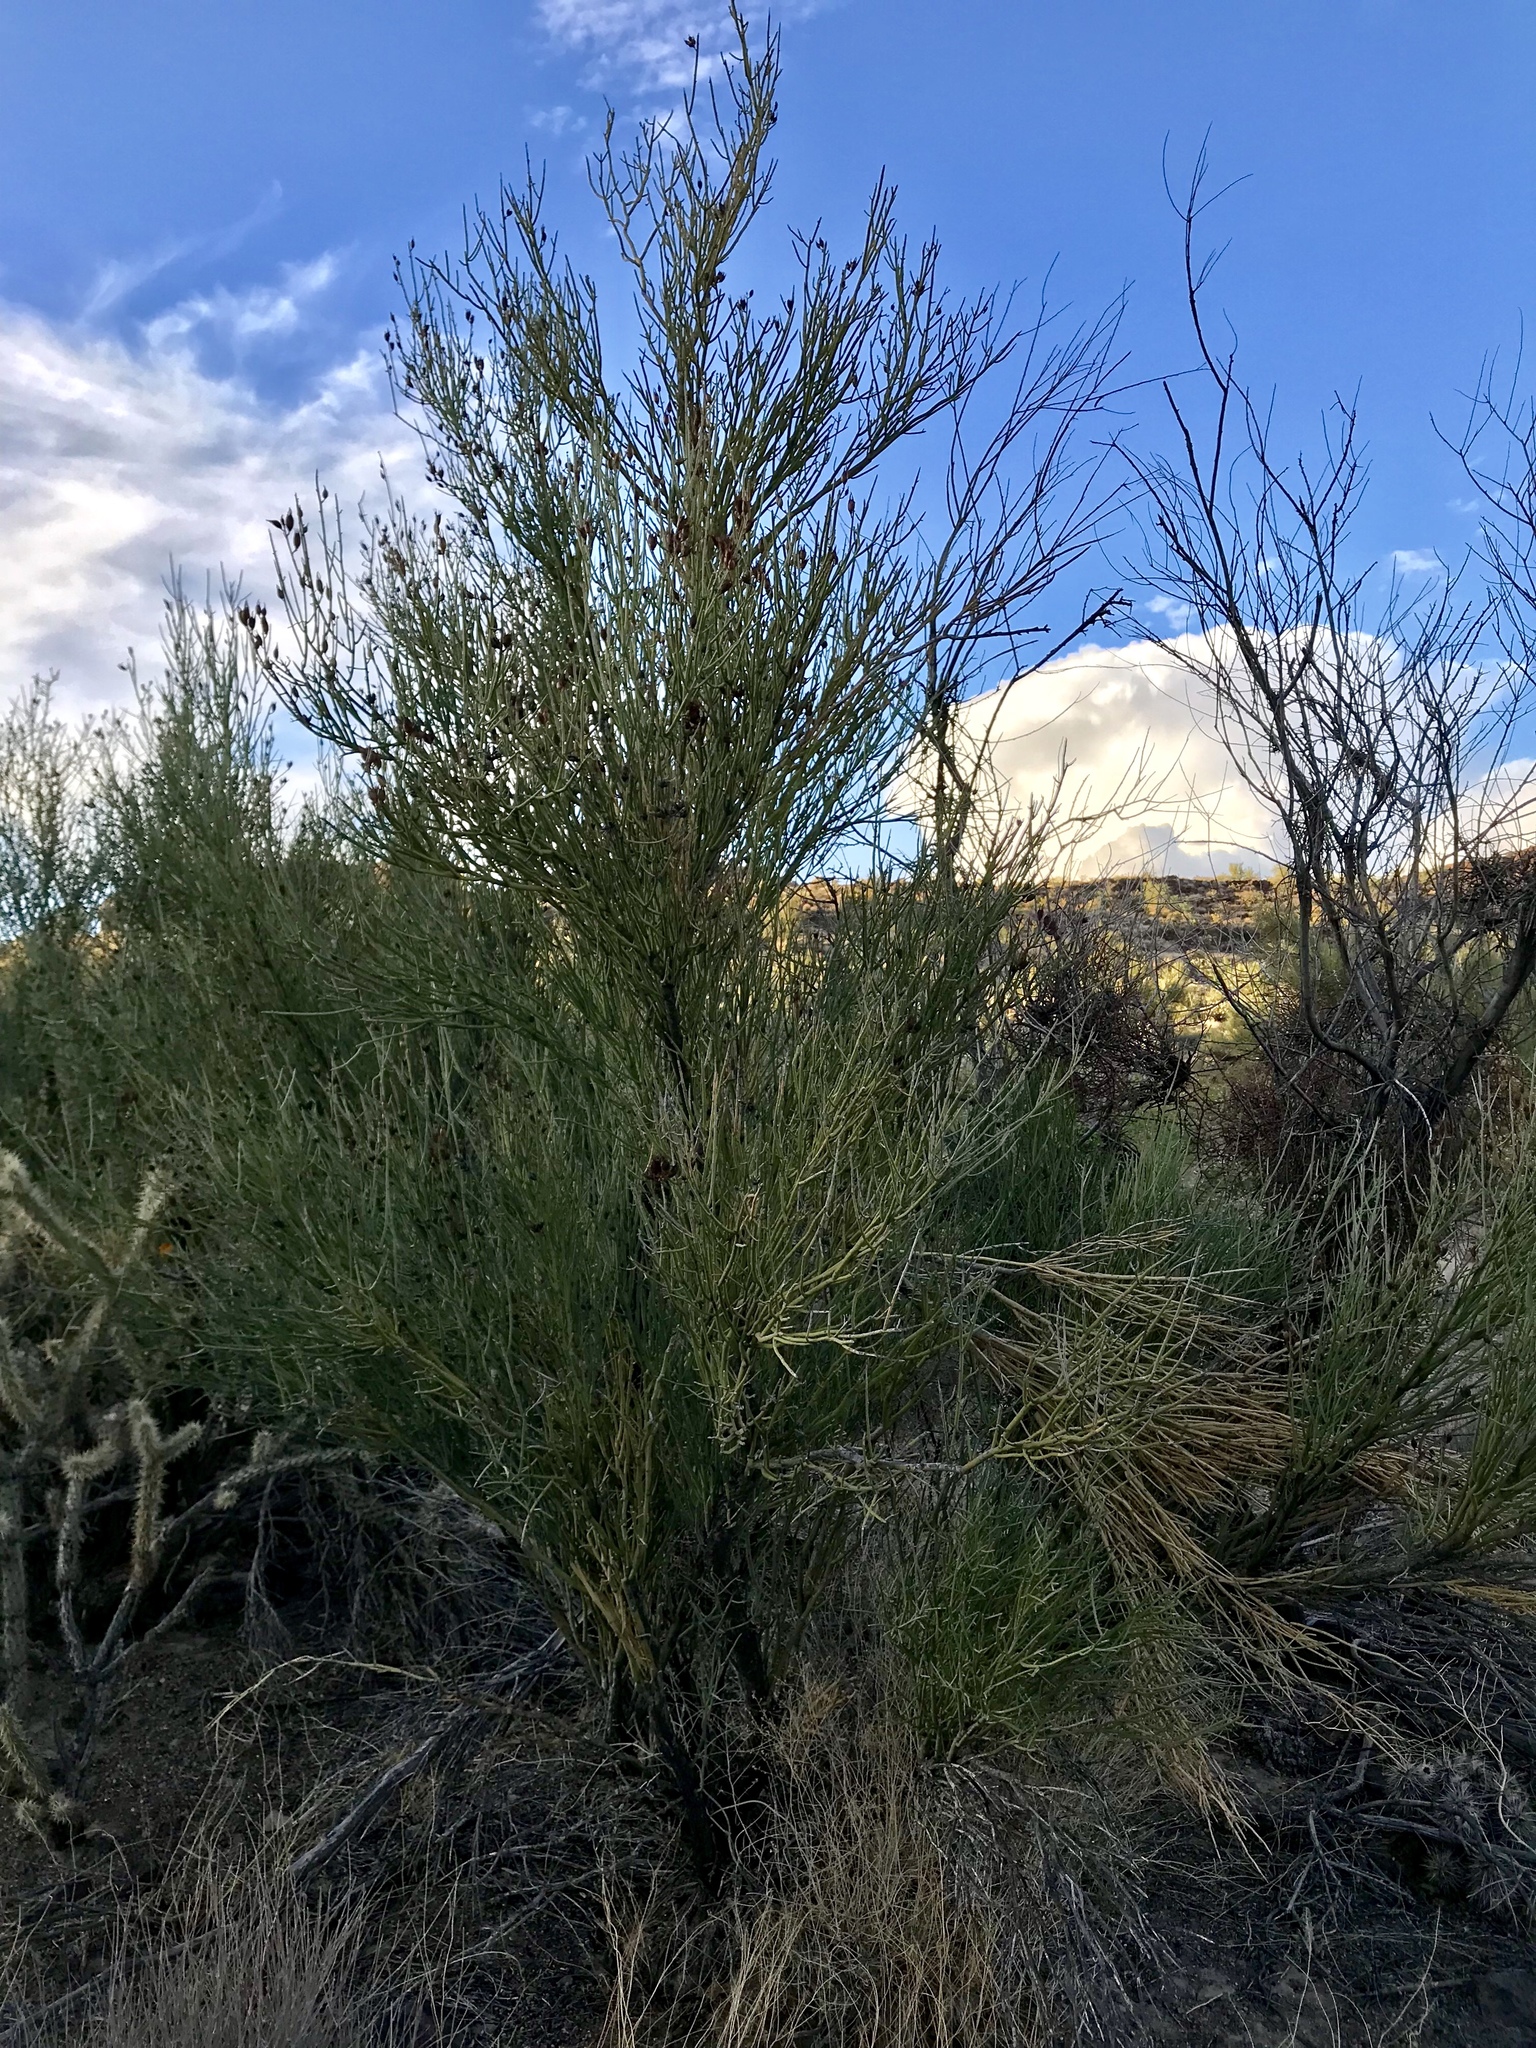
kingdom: Plantae
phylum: Tracheophyta
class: Magnoliopsida
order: Celastrales
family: Celastraceae
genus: Canotia
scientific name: Canotia holacantha
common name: Crucifixion thorns
